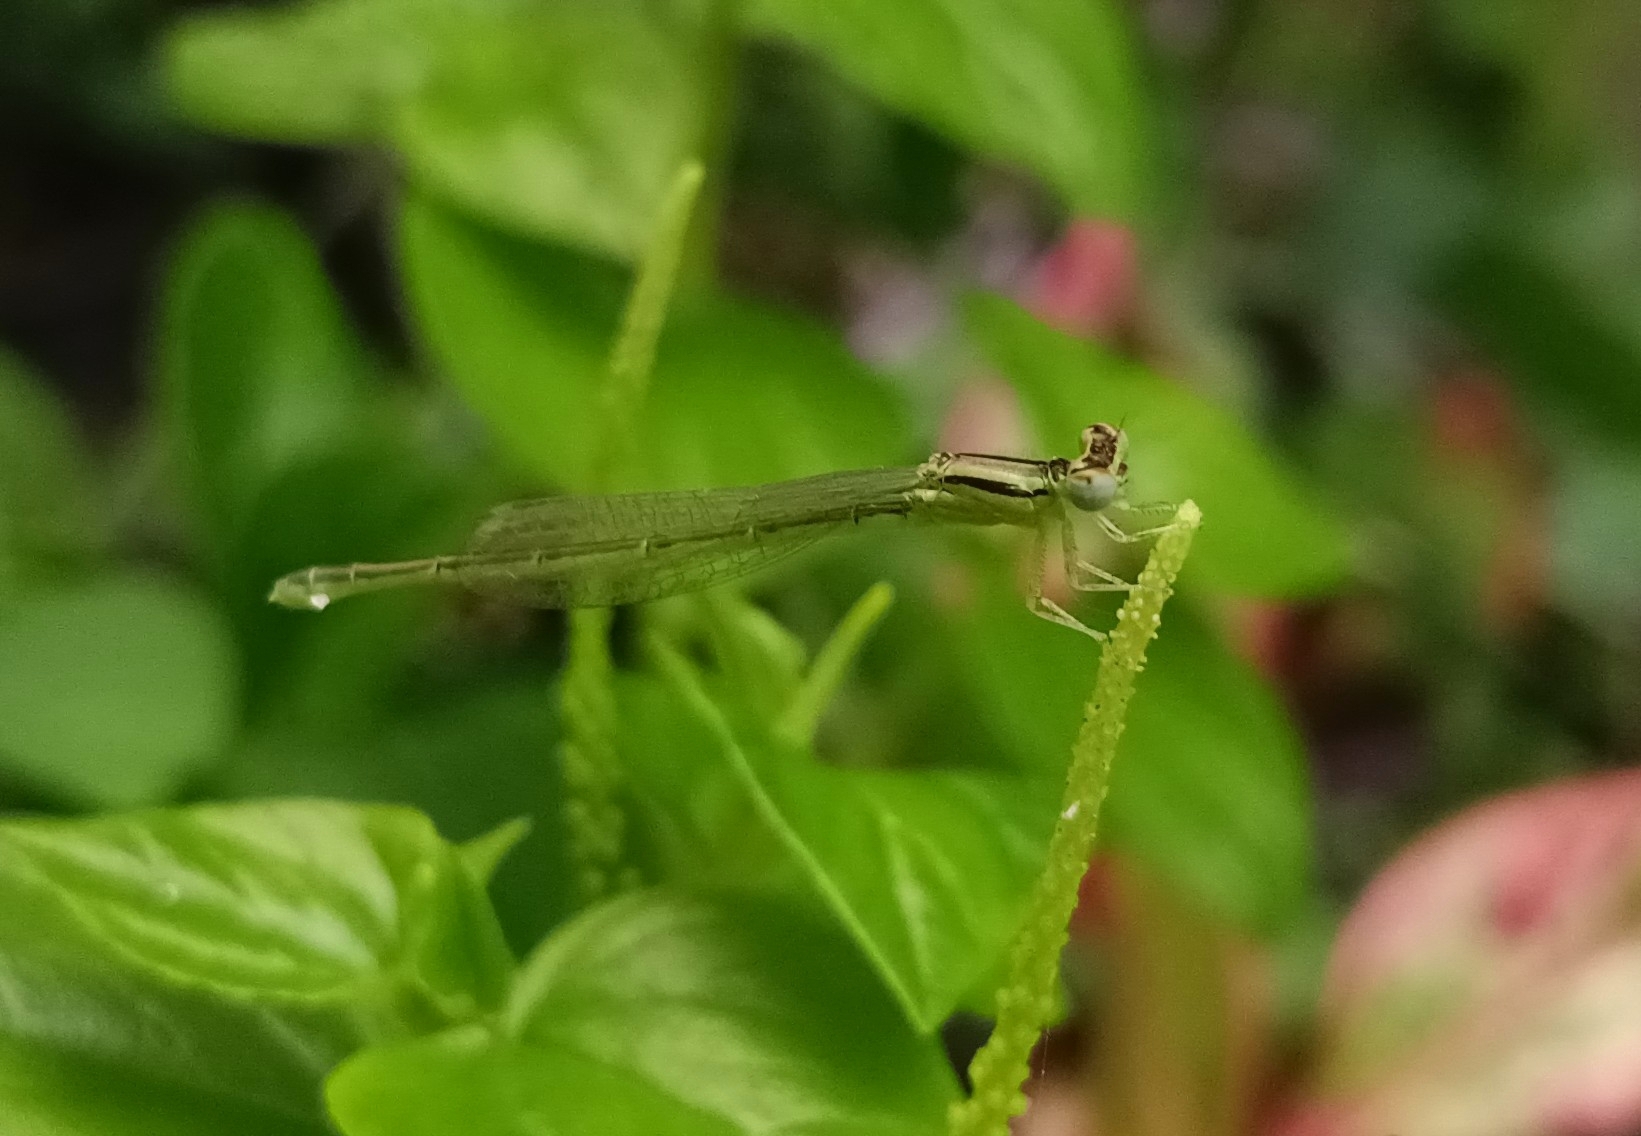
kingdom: Animalia
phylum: Arthropoda
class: Insecta
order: Odonata
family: Coenagrionidae
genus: Ischnura
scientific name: Ischnura rubilio
